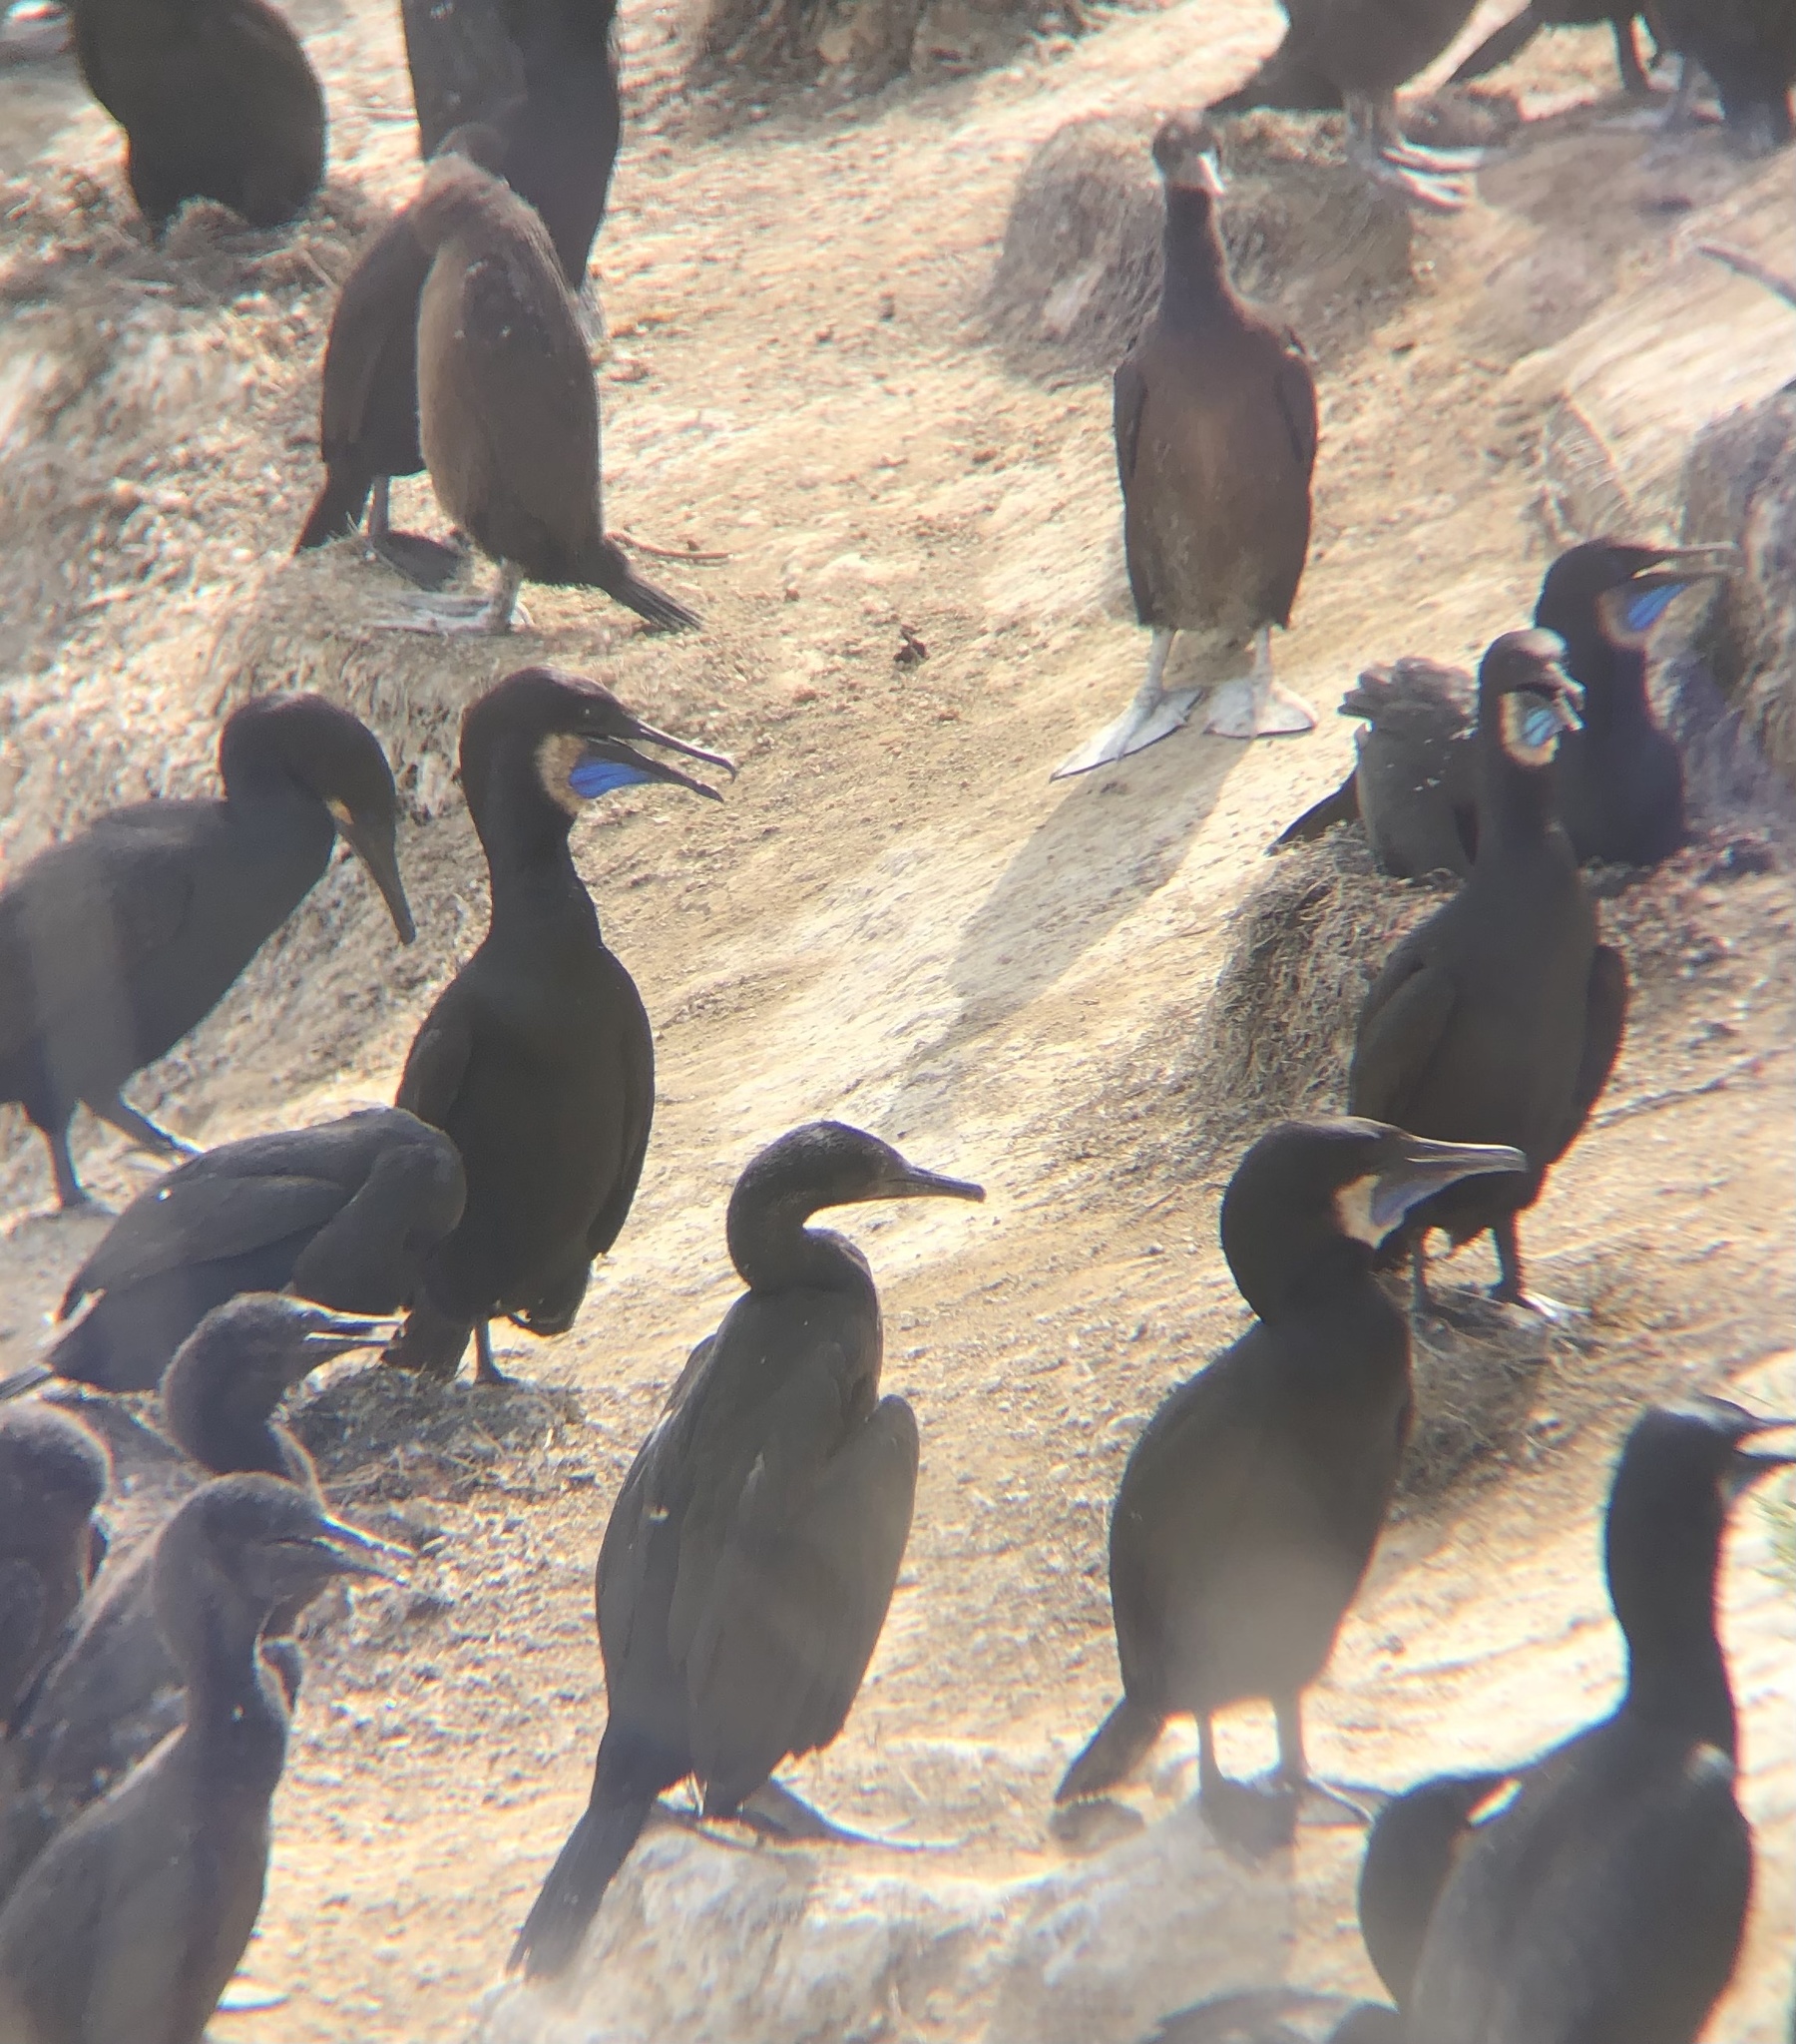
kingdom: Animalia
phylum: Chordata
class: Aves
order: Suliformes
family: Phalacrocoracidae
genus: Urile
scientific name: Urile penicillatus
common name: Brandt's cormorant
